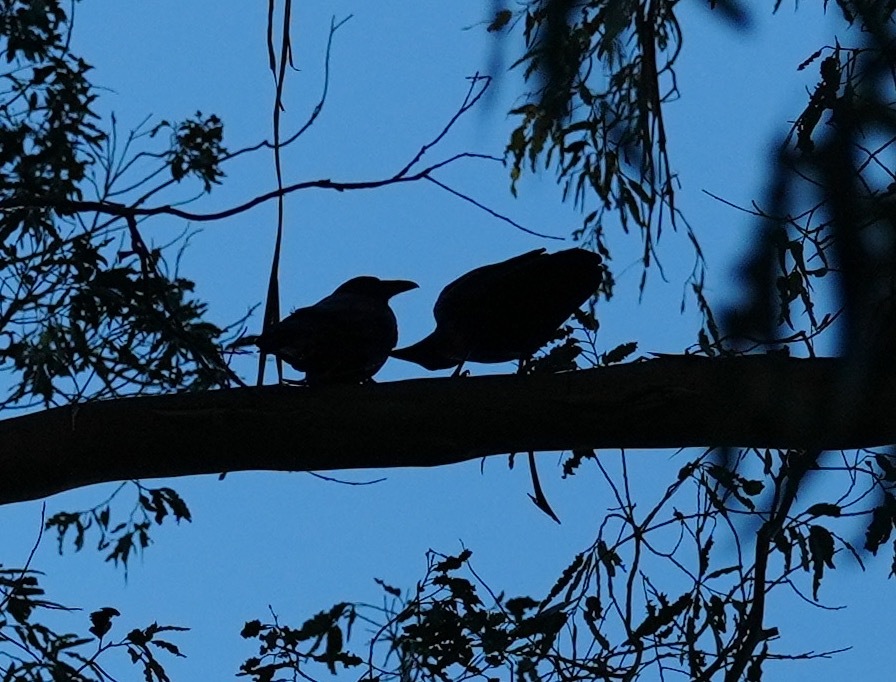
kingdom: Animalia
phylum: Chordata
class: Aves
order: Passeriformes
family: Corvidae
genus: Corvus
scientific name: Corvus corax
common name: Common raven
